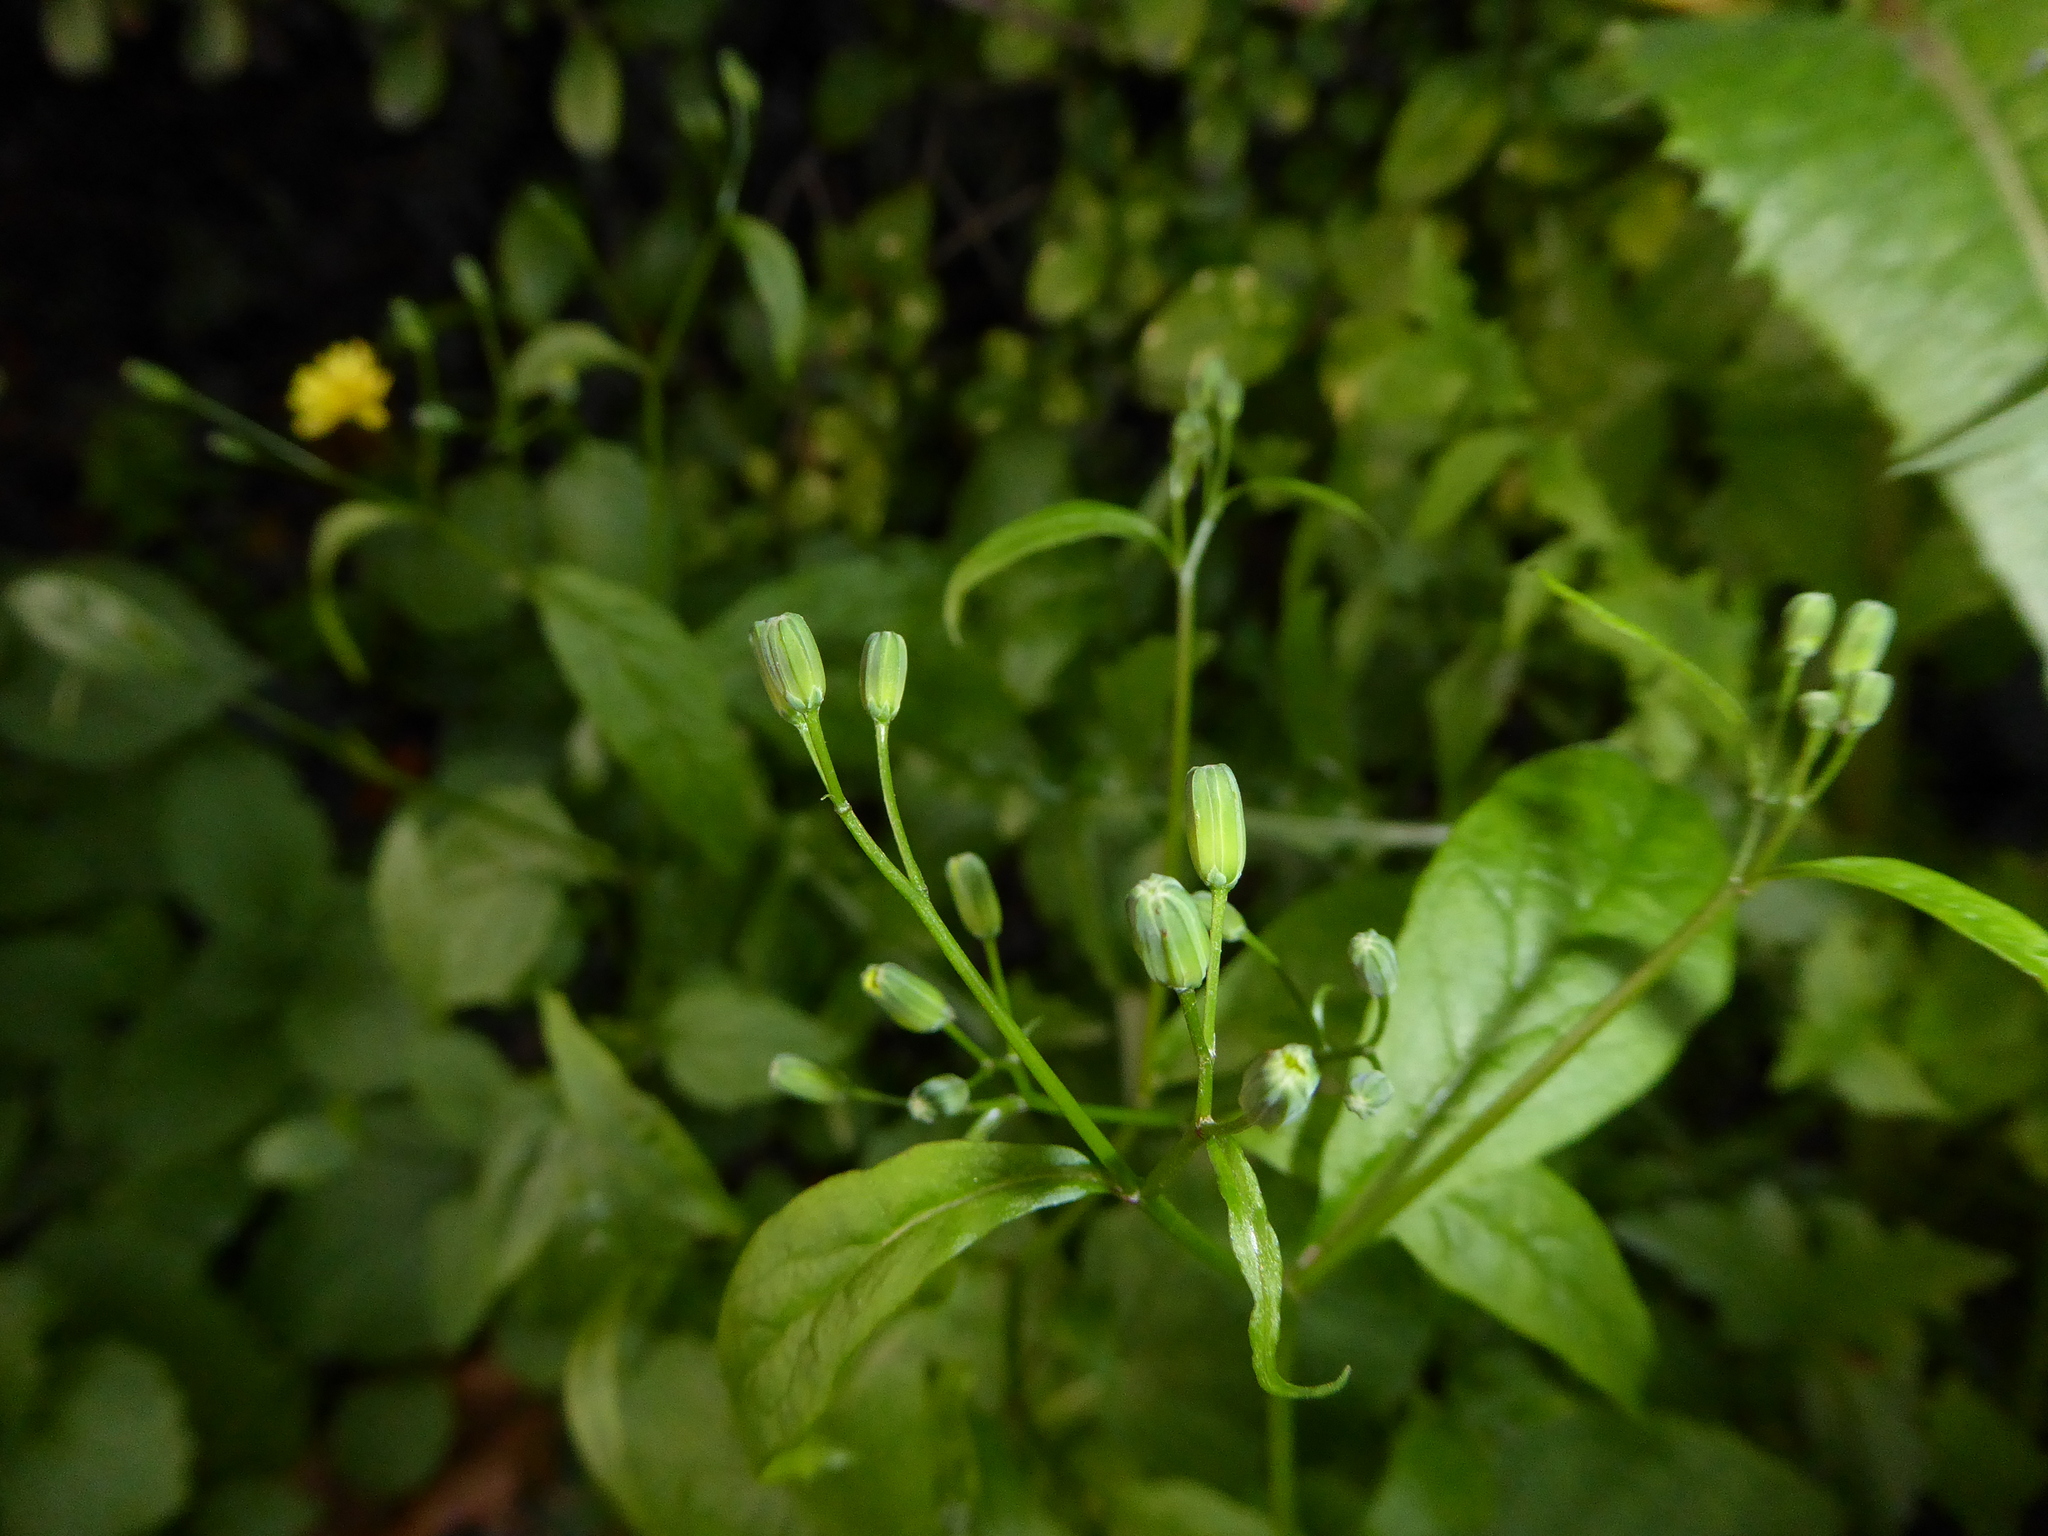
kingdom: Plantae
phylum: Tracheophyta
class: Magnoliopsida
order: Asterales
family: Asteraceae
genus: Lapsana
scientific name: Lapsana communis
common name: Nipplewort
